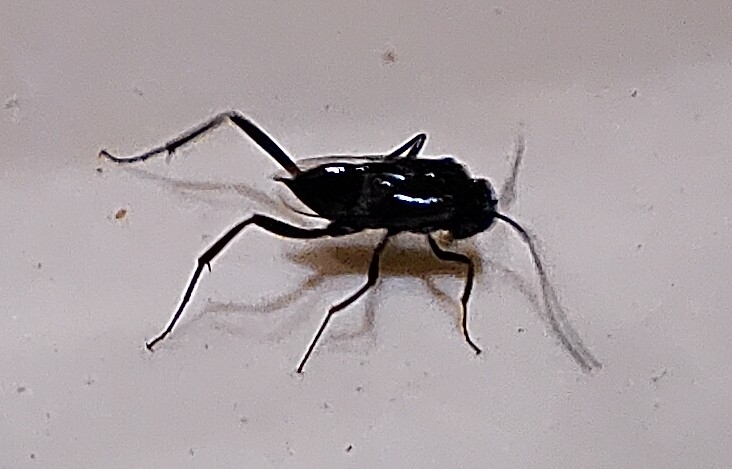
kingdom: Animalia
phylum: Arthropoda
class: Insecta
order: Hymenoptera
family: Evaniidae
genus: Evania
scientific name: Evania appendigaster
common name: Ensign wasp
